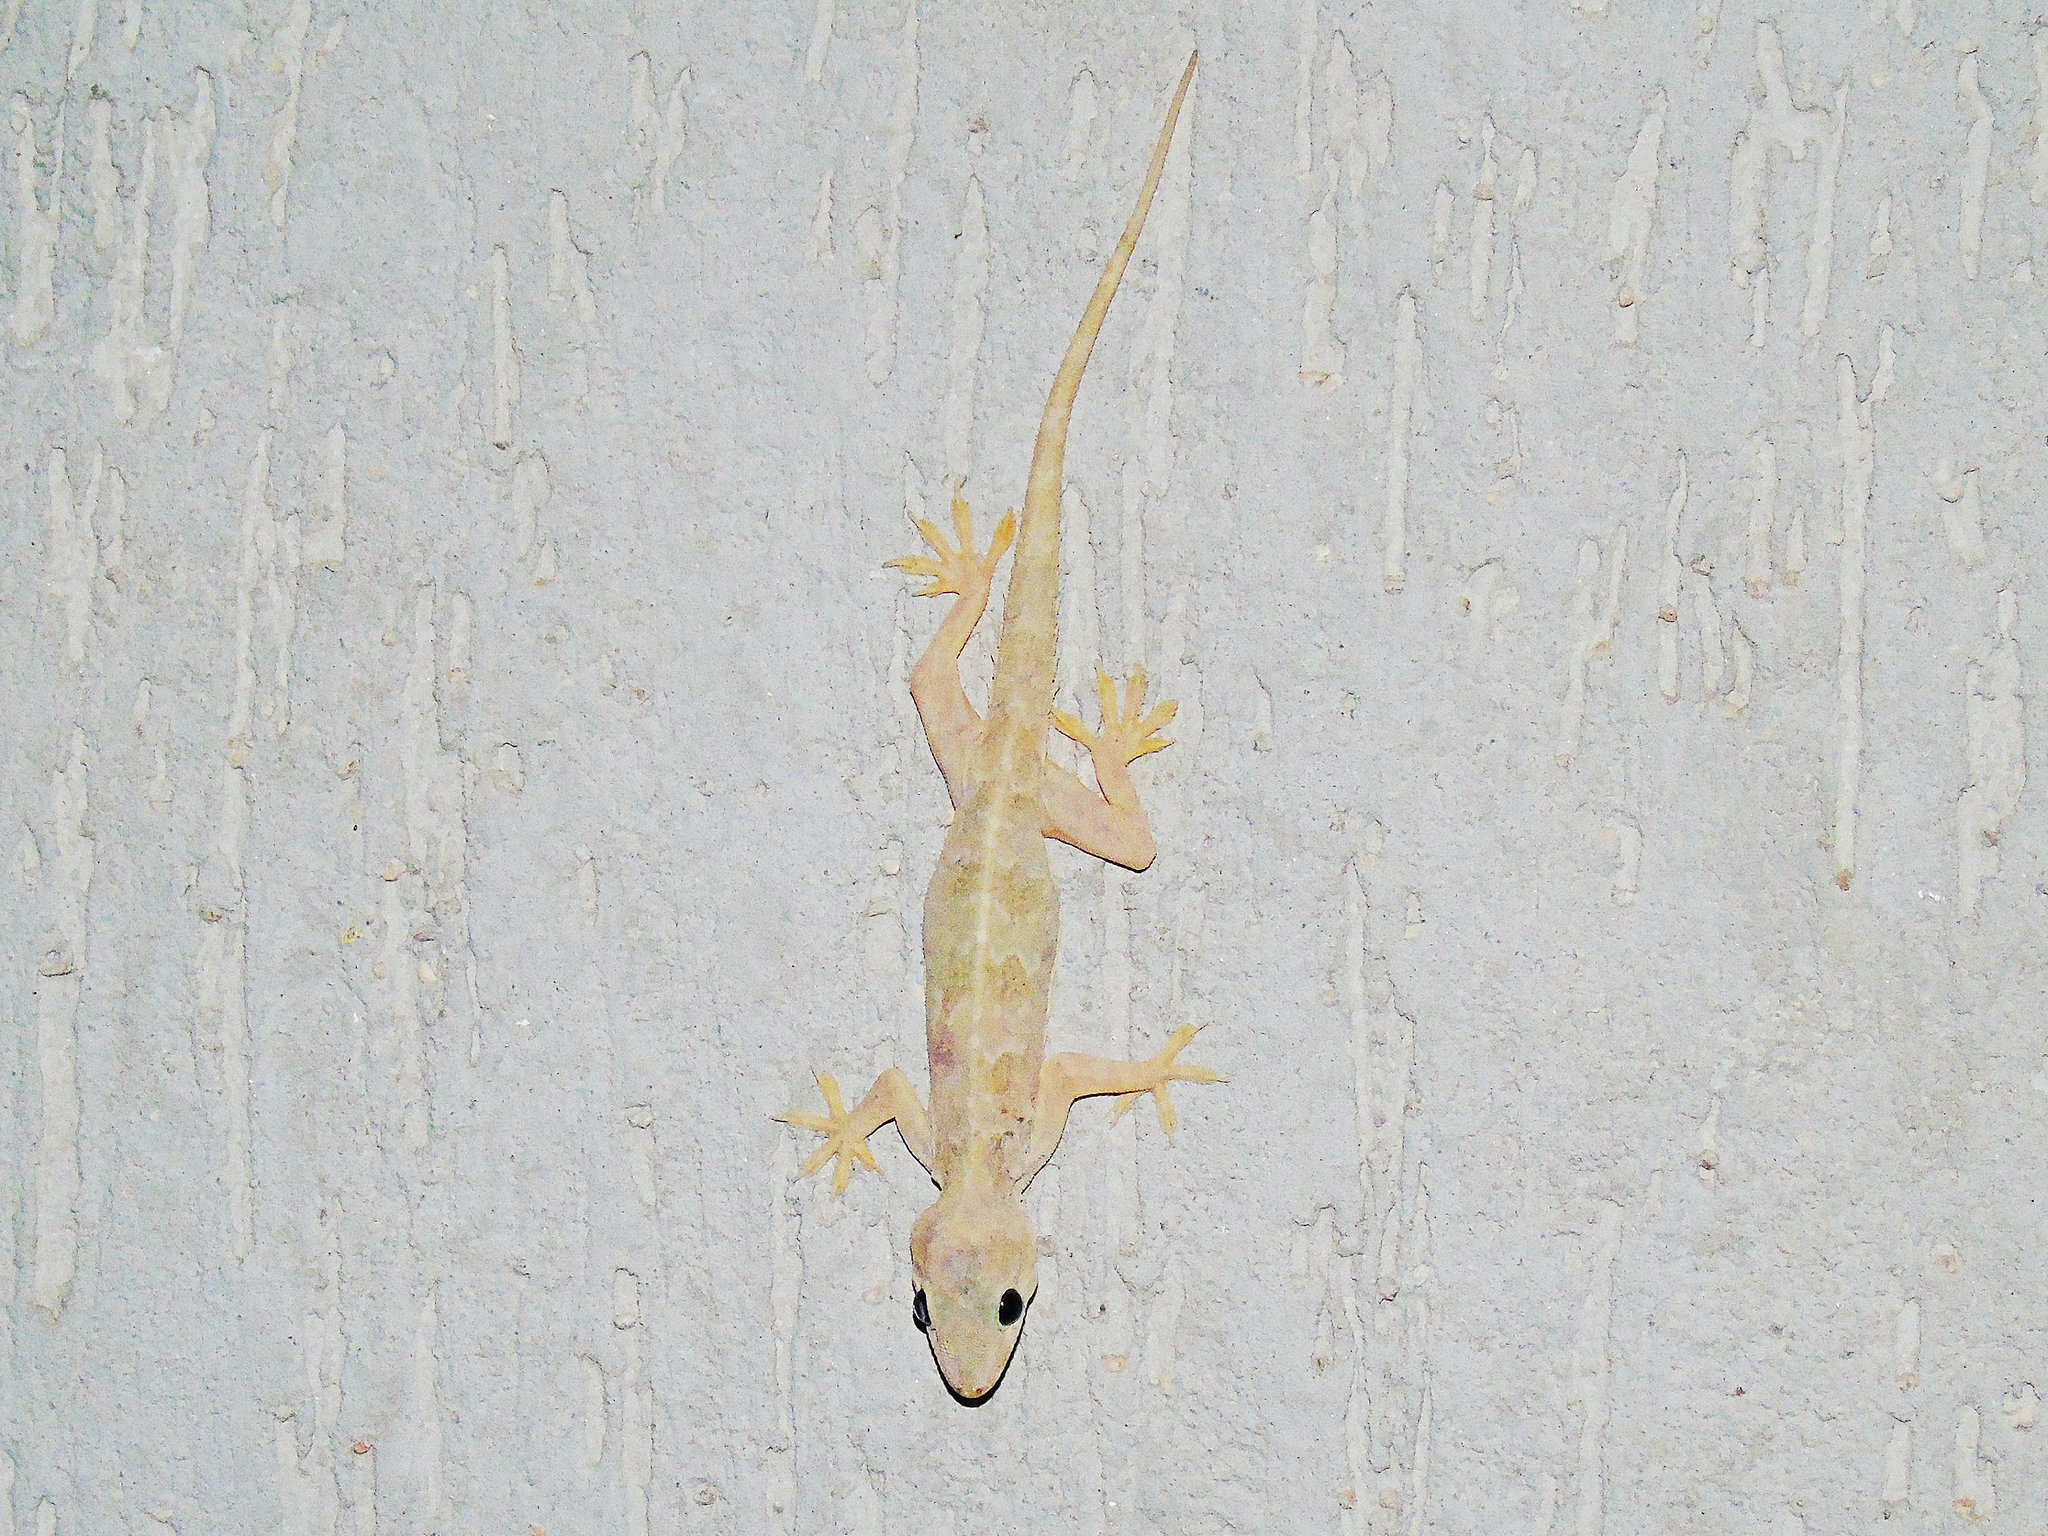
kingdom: Animalia
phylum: Chordata
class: Squamata
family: Gekkonidae
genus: Hemidactylus
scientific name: Hemidactylus flaviviridis
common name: Northern house gecko
